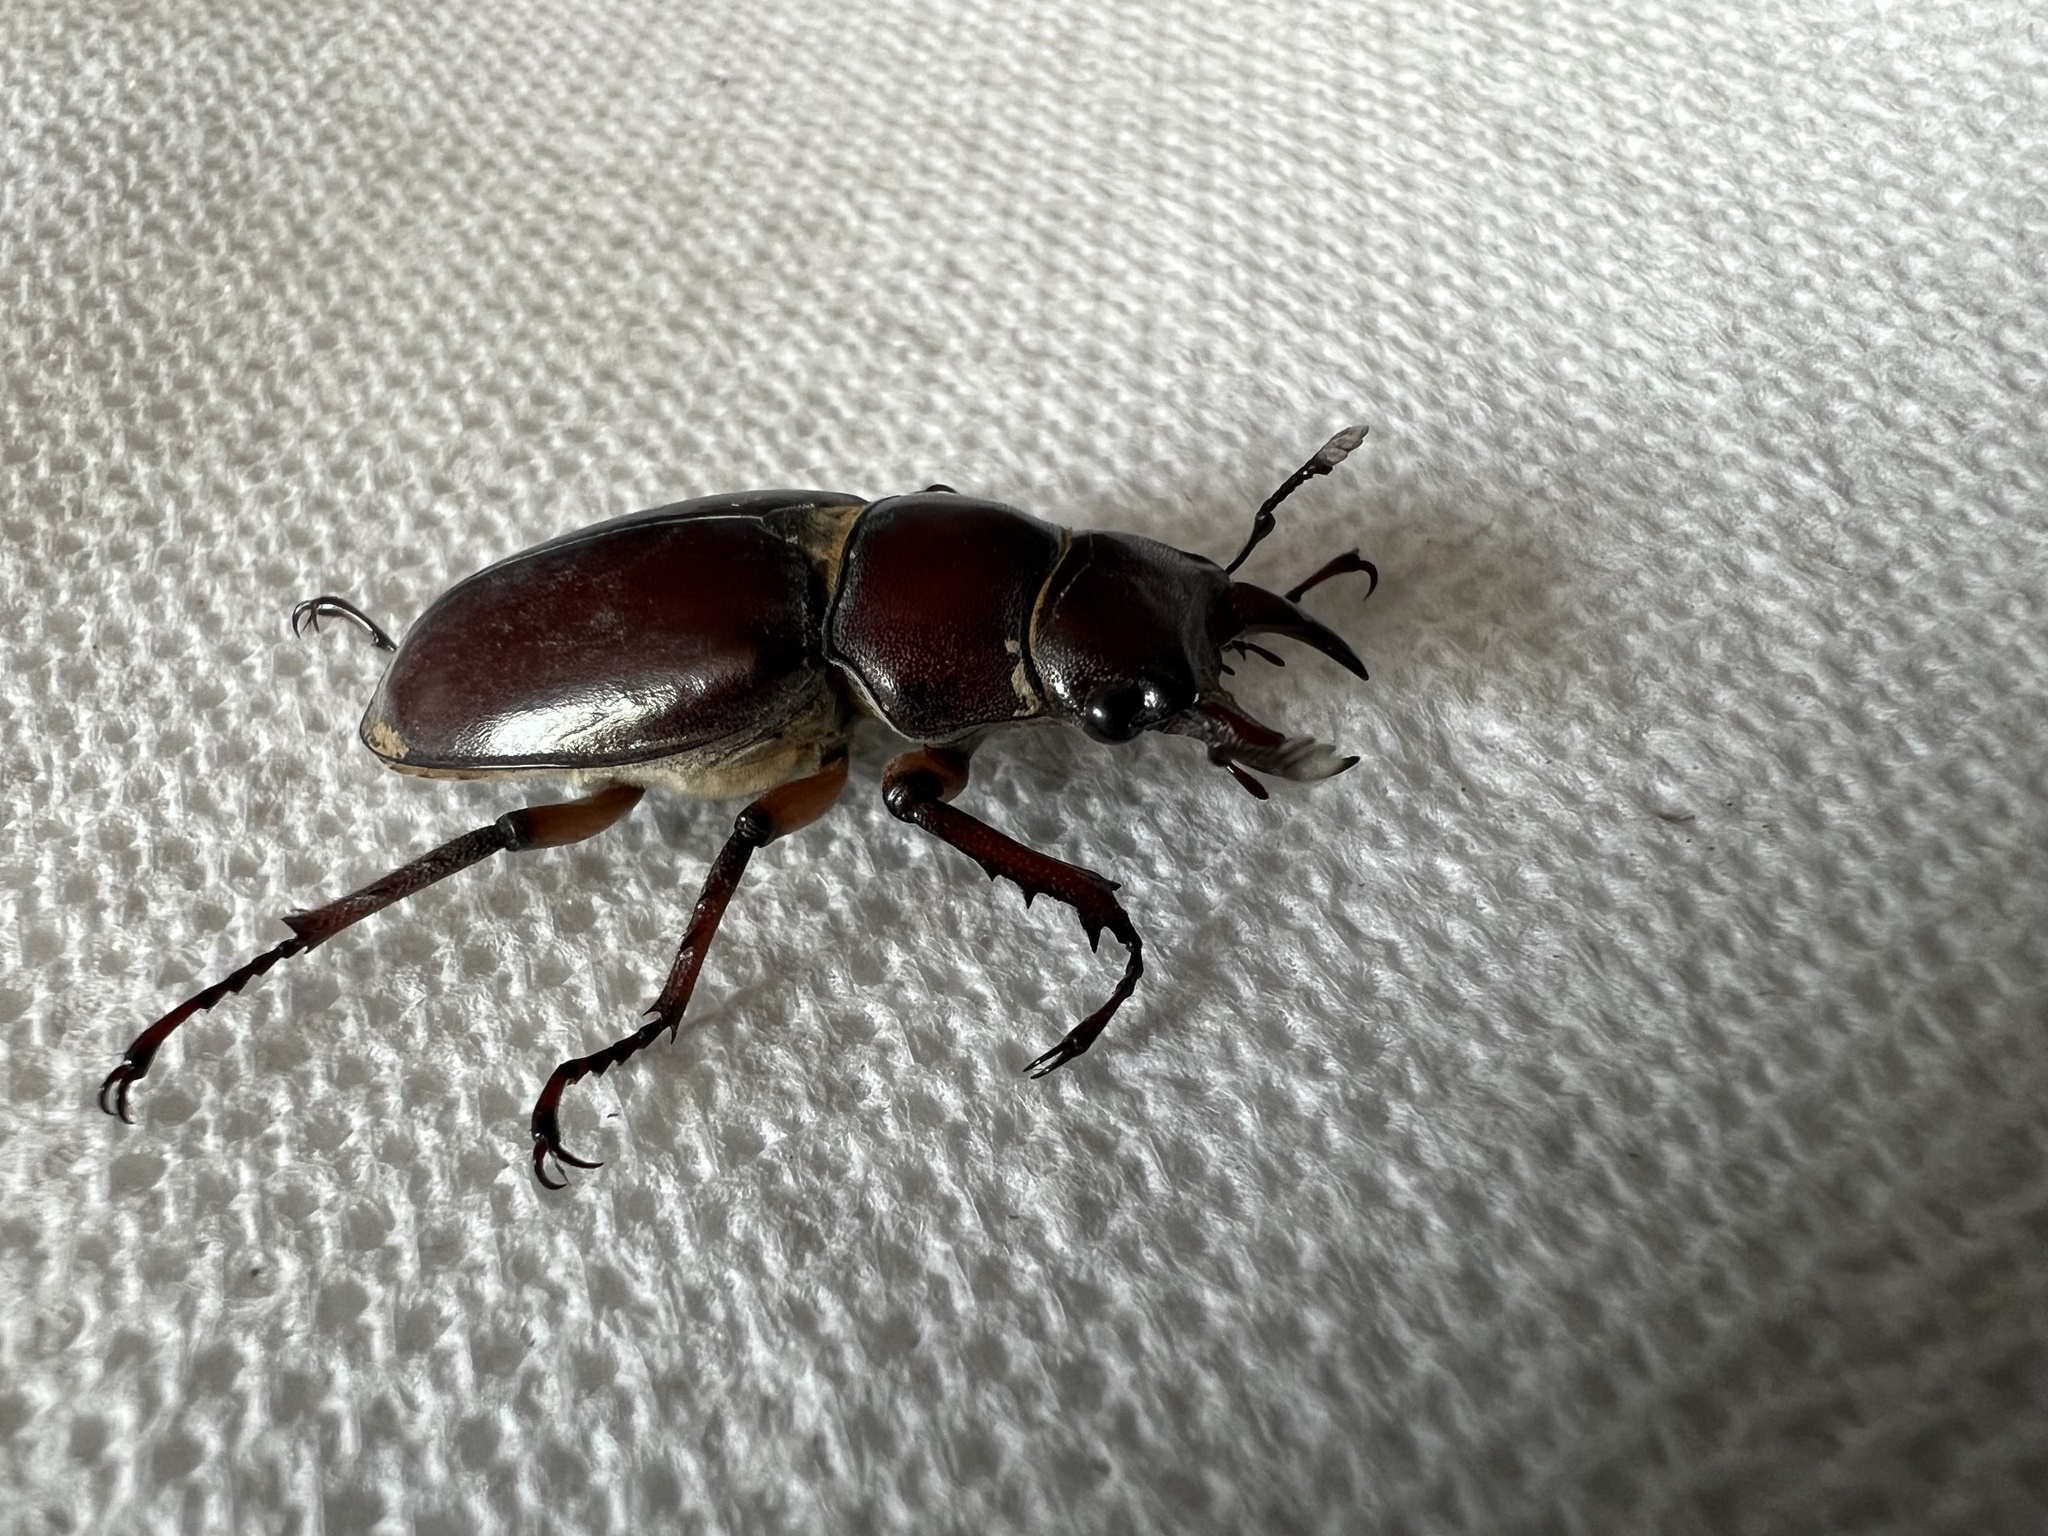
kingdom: Animalia
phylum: Arthropoda
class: Insecta
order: Coleoptera
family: Lucanidae
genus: Lucanus
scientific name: Lucanus capreolus
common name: Stag beetle
